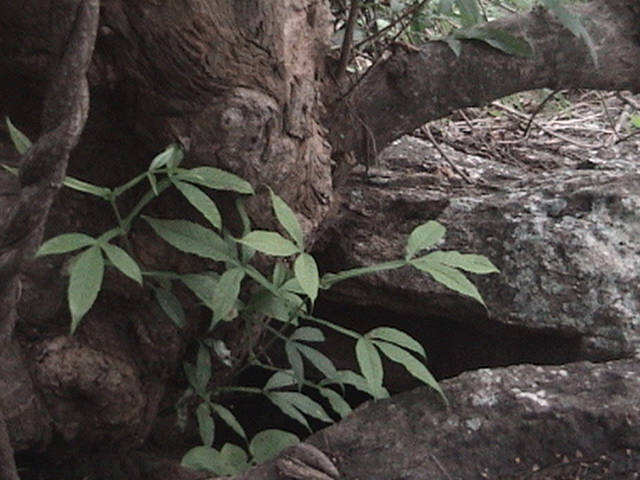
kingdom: Plantae
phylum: Tracheophyta
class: Magnoliopsida
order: Lamiales
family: Lamiaceae
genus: Vitex
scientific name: Vitex altissima
